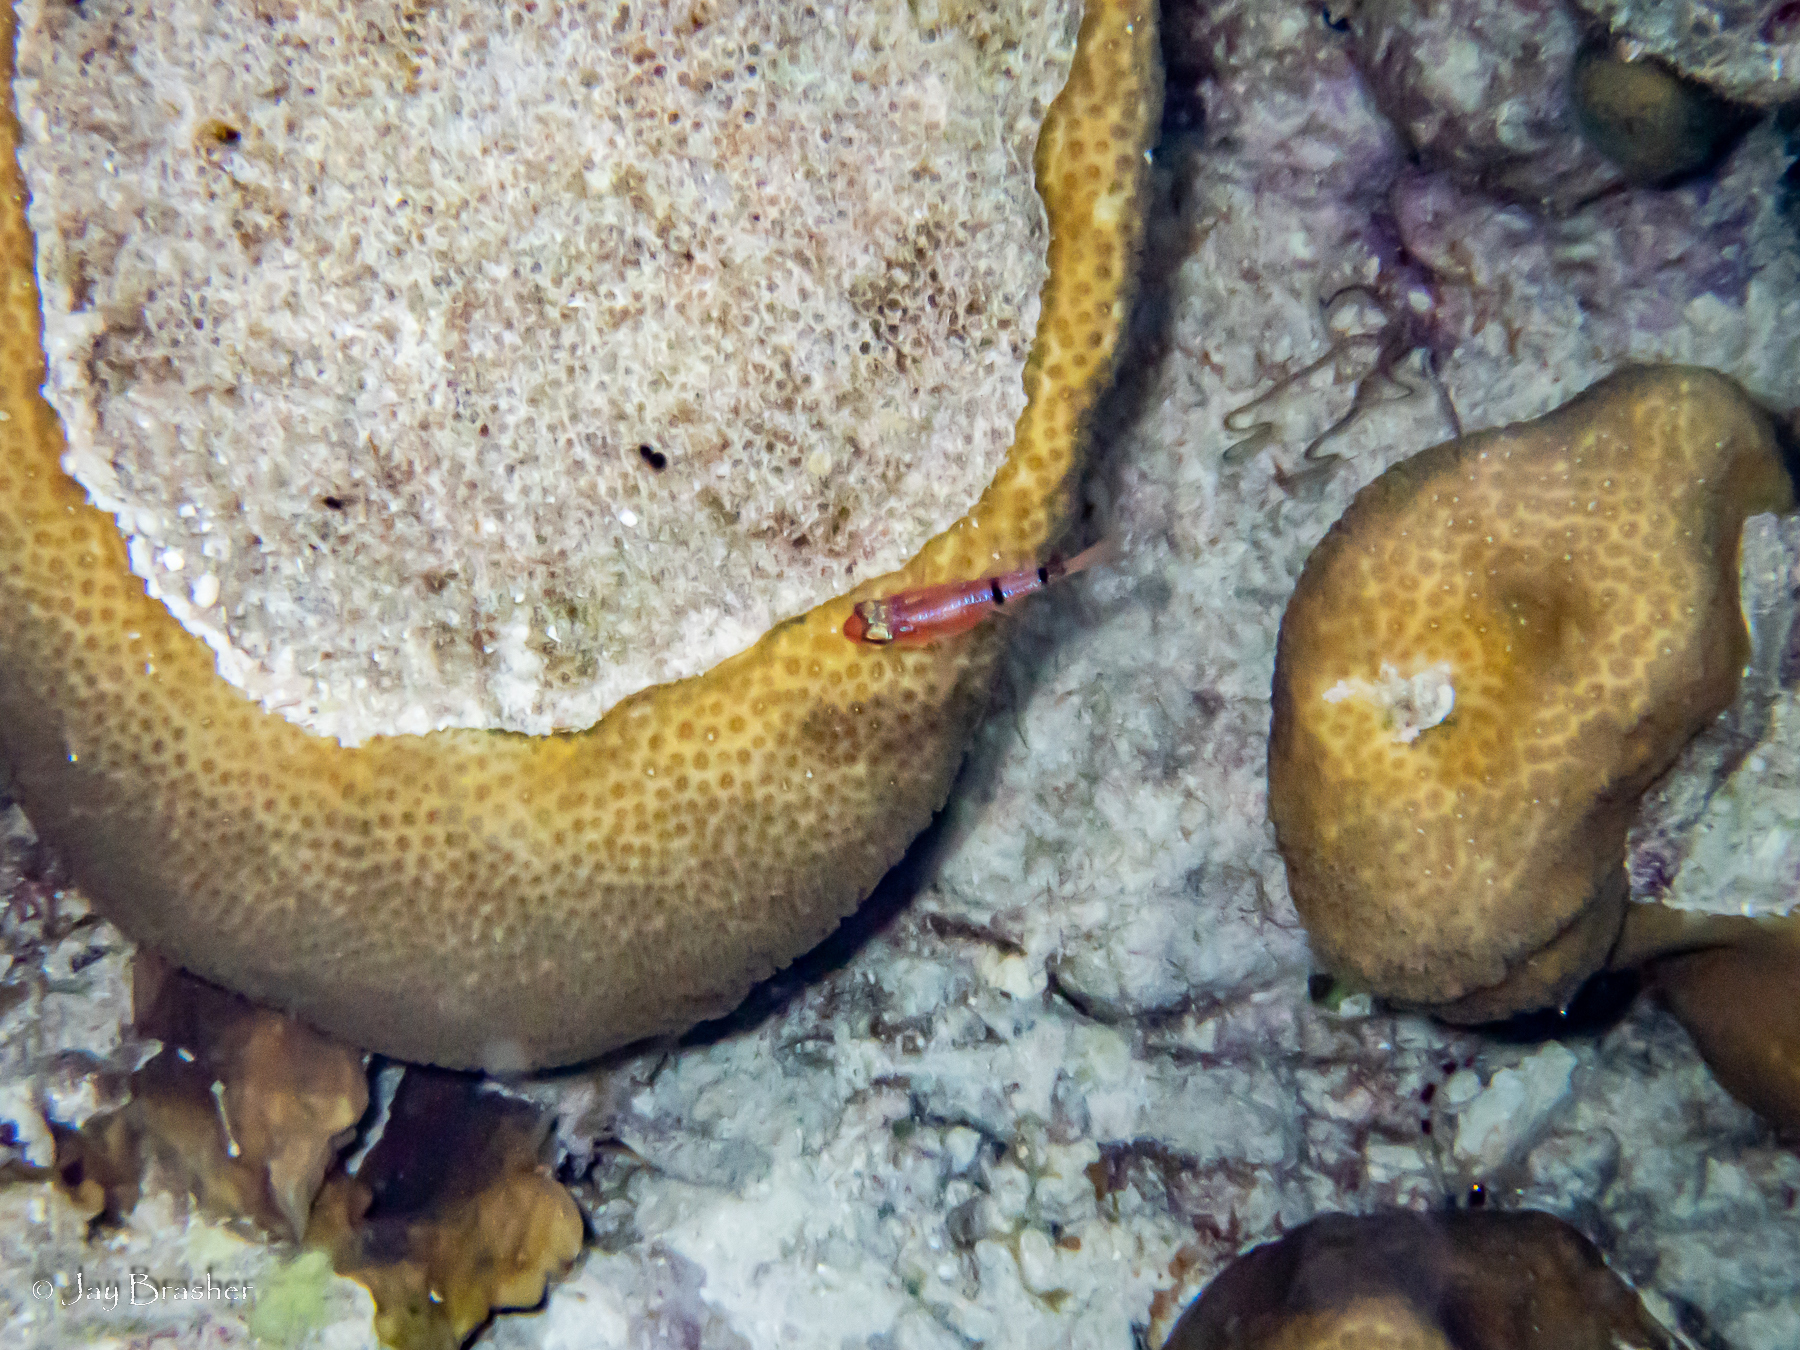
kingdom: Animalia
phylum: Chordata
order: Perciformes
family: Apogonidae
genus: Apogon
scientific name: Apogon townsendi
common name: Belted cardinalfish
